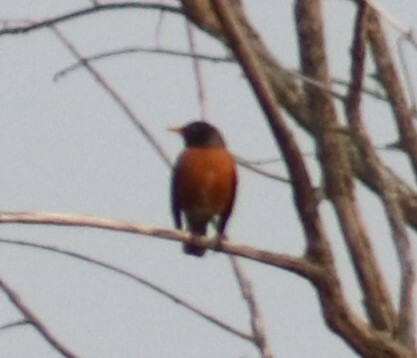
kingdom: Animalia
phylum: Chordata
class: Aves
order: Passeriformes
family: Turdidae
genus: Turdus
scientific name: Turdus migratorius
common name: American robin
